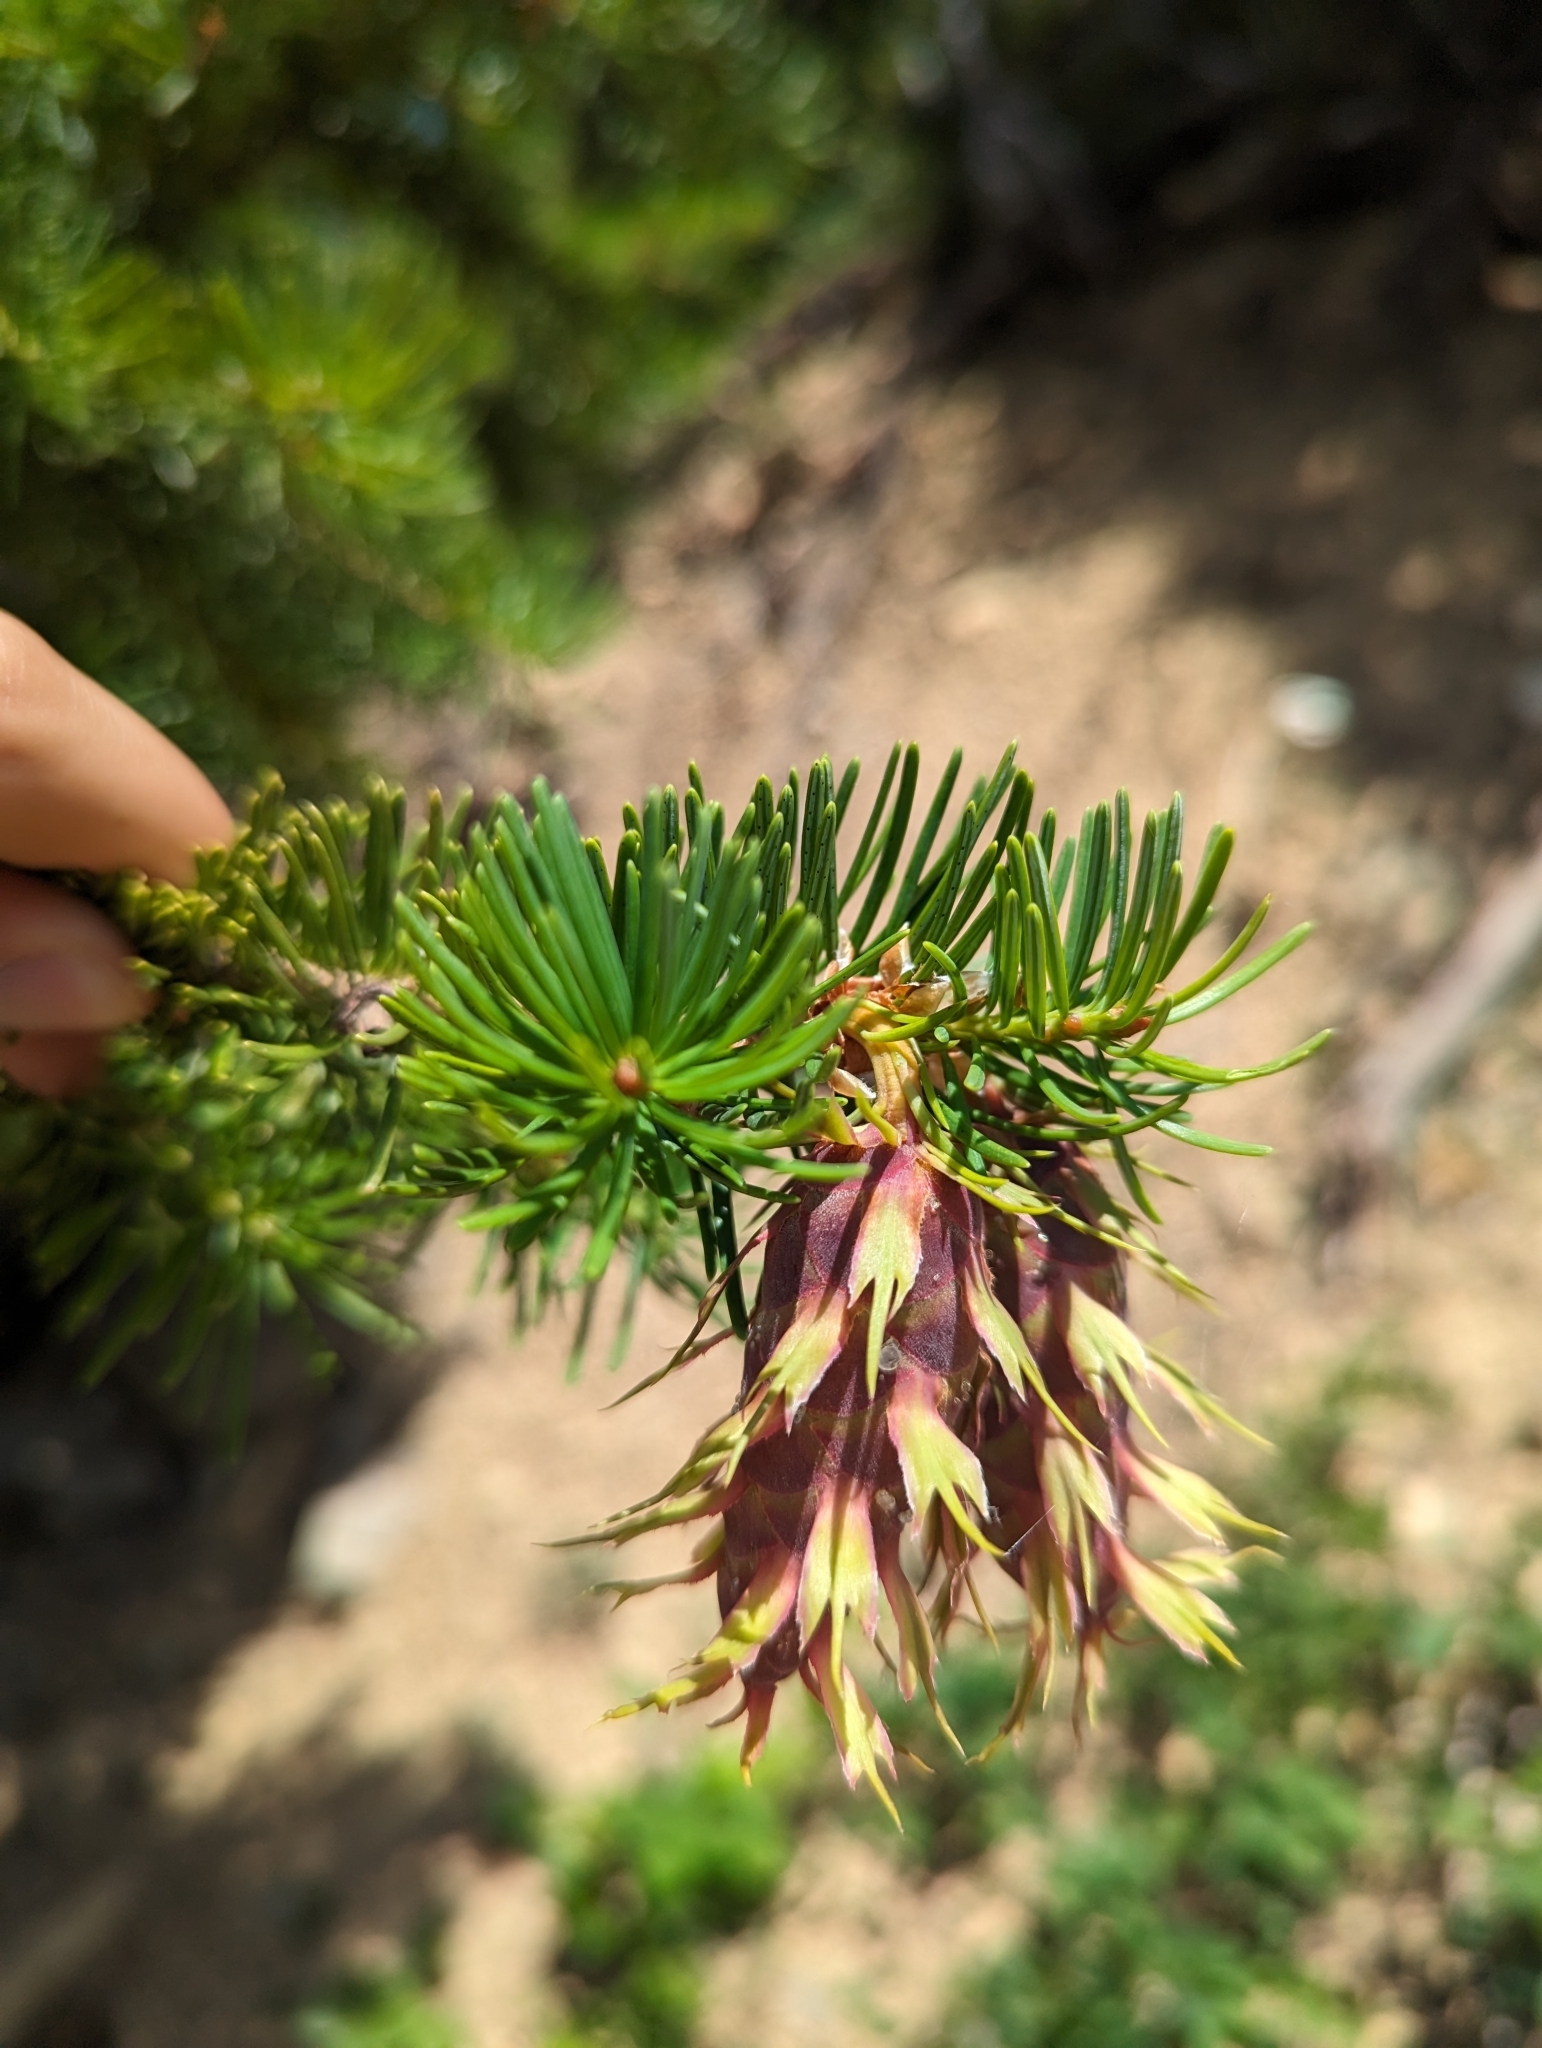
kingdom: Plantae
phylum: Tracheophyta
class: Pinopsida
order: Pinales
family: Pinaceae
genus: Pseudotsuga
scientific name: Pseudotsuga menziesii
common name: Douglas fir
